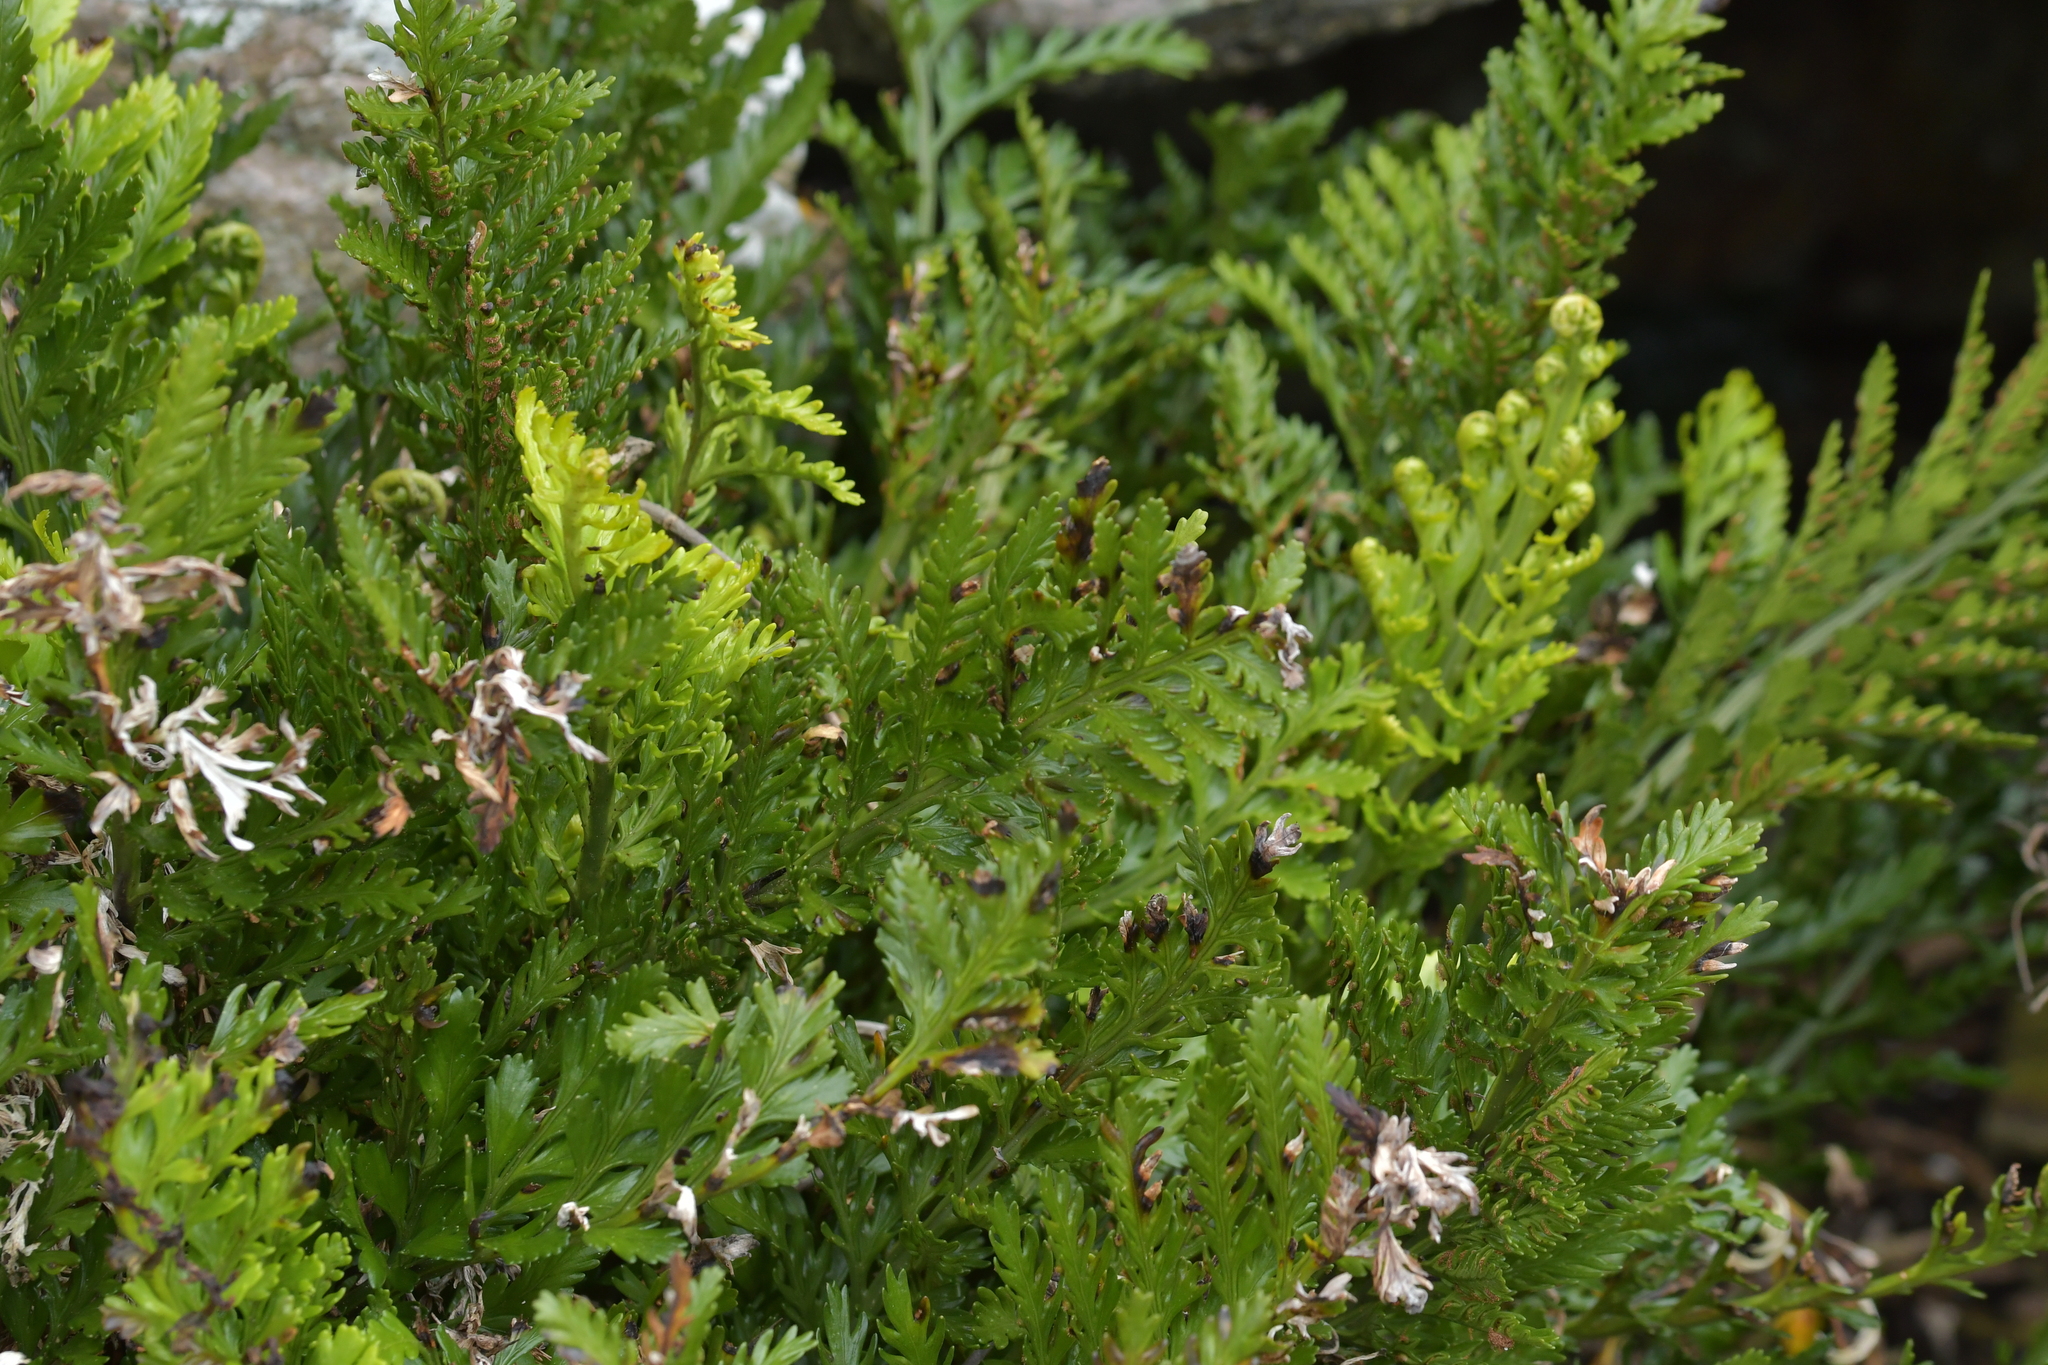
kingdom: Plantae
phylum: Tracheophyta
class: Polypodiopsida
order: Polypodiales
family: Aspleniaceae
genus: Asplenium
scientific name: Asplenium chathamense
